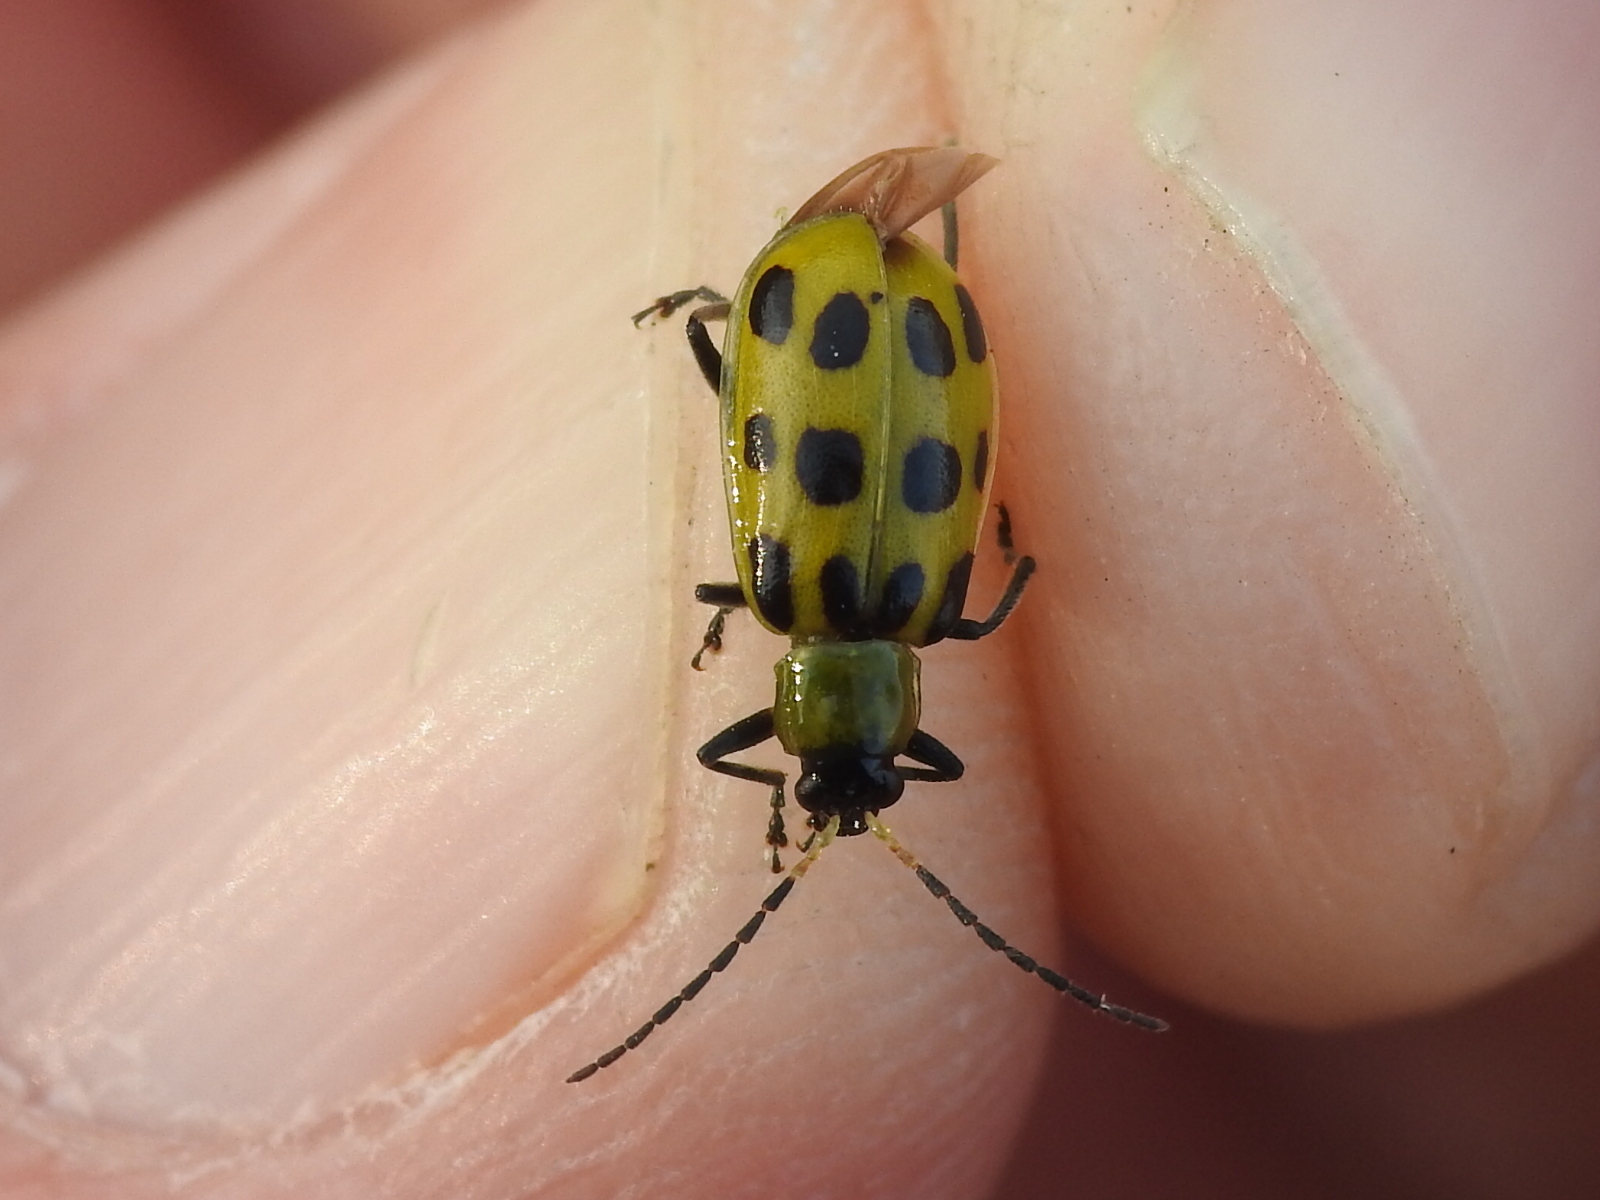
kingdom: Animalia
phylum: Arthropoda
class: Insecta
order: Coleoptera
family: Chrysomelidae
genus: Diabrotica
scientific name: Diabrotica undecimpunctata
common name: Spotted cucumber beetle
